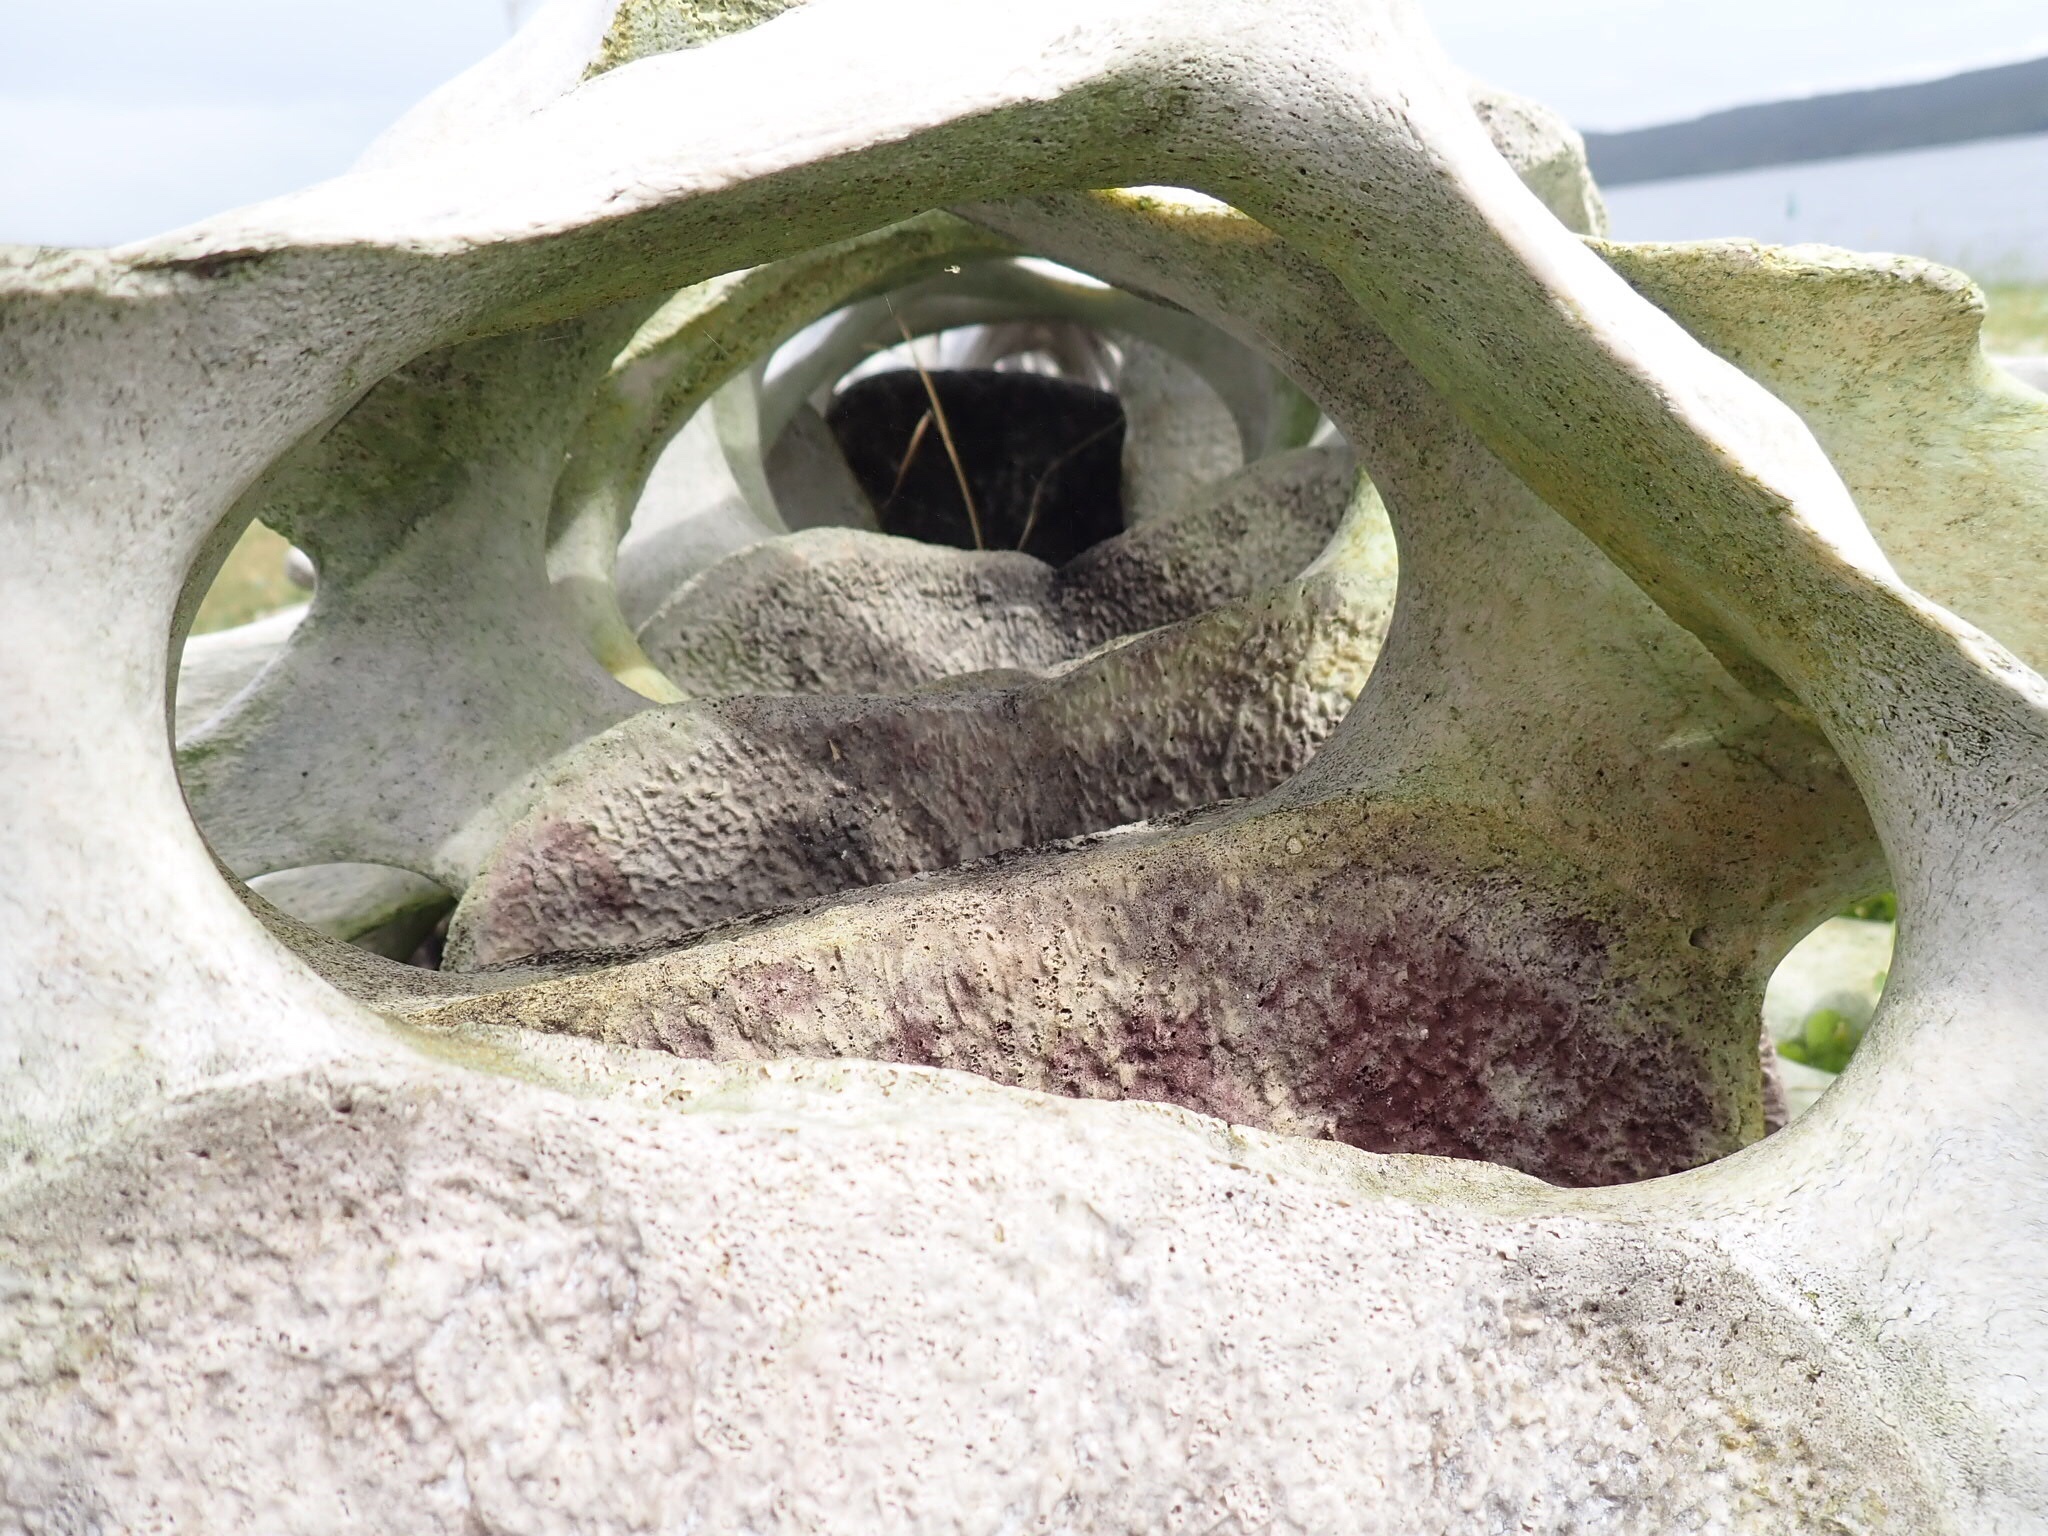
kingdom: Animalia
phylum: Chordata
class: Mammalia
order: Cetacea
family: Balaenopteridae
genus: Megaptera
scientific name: Megaptera novaeangliae
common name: Humpback whale
